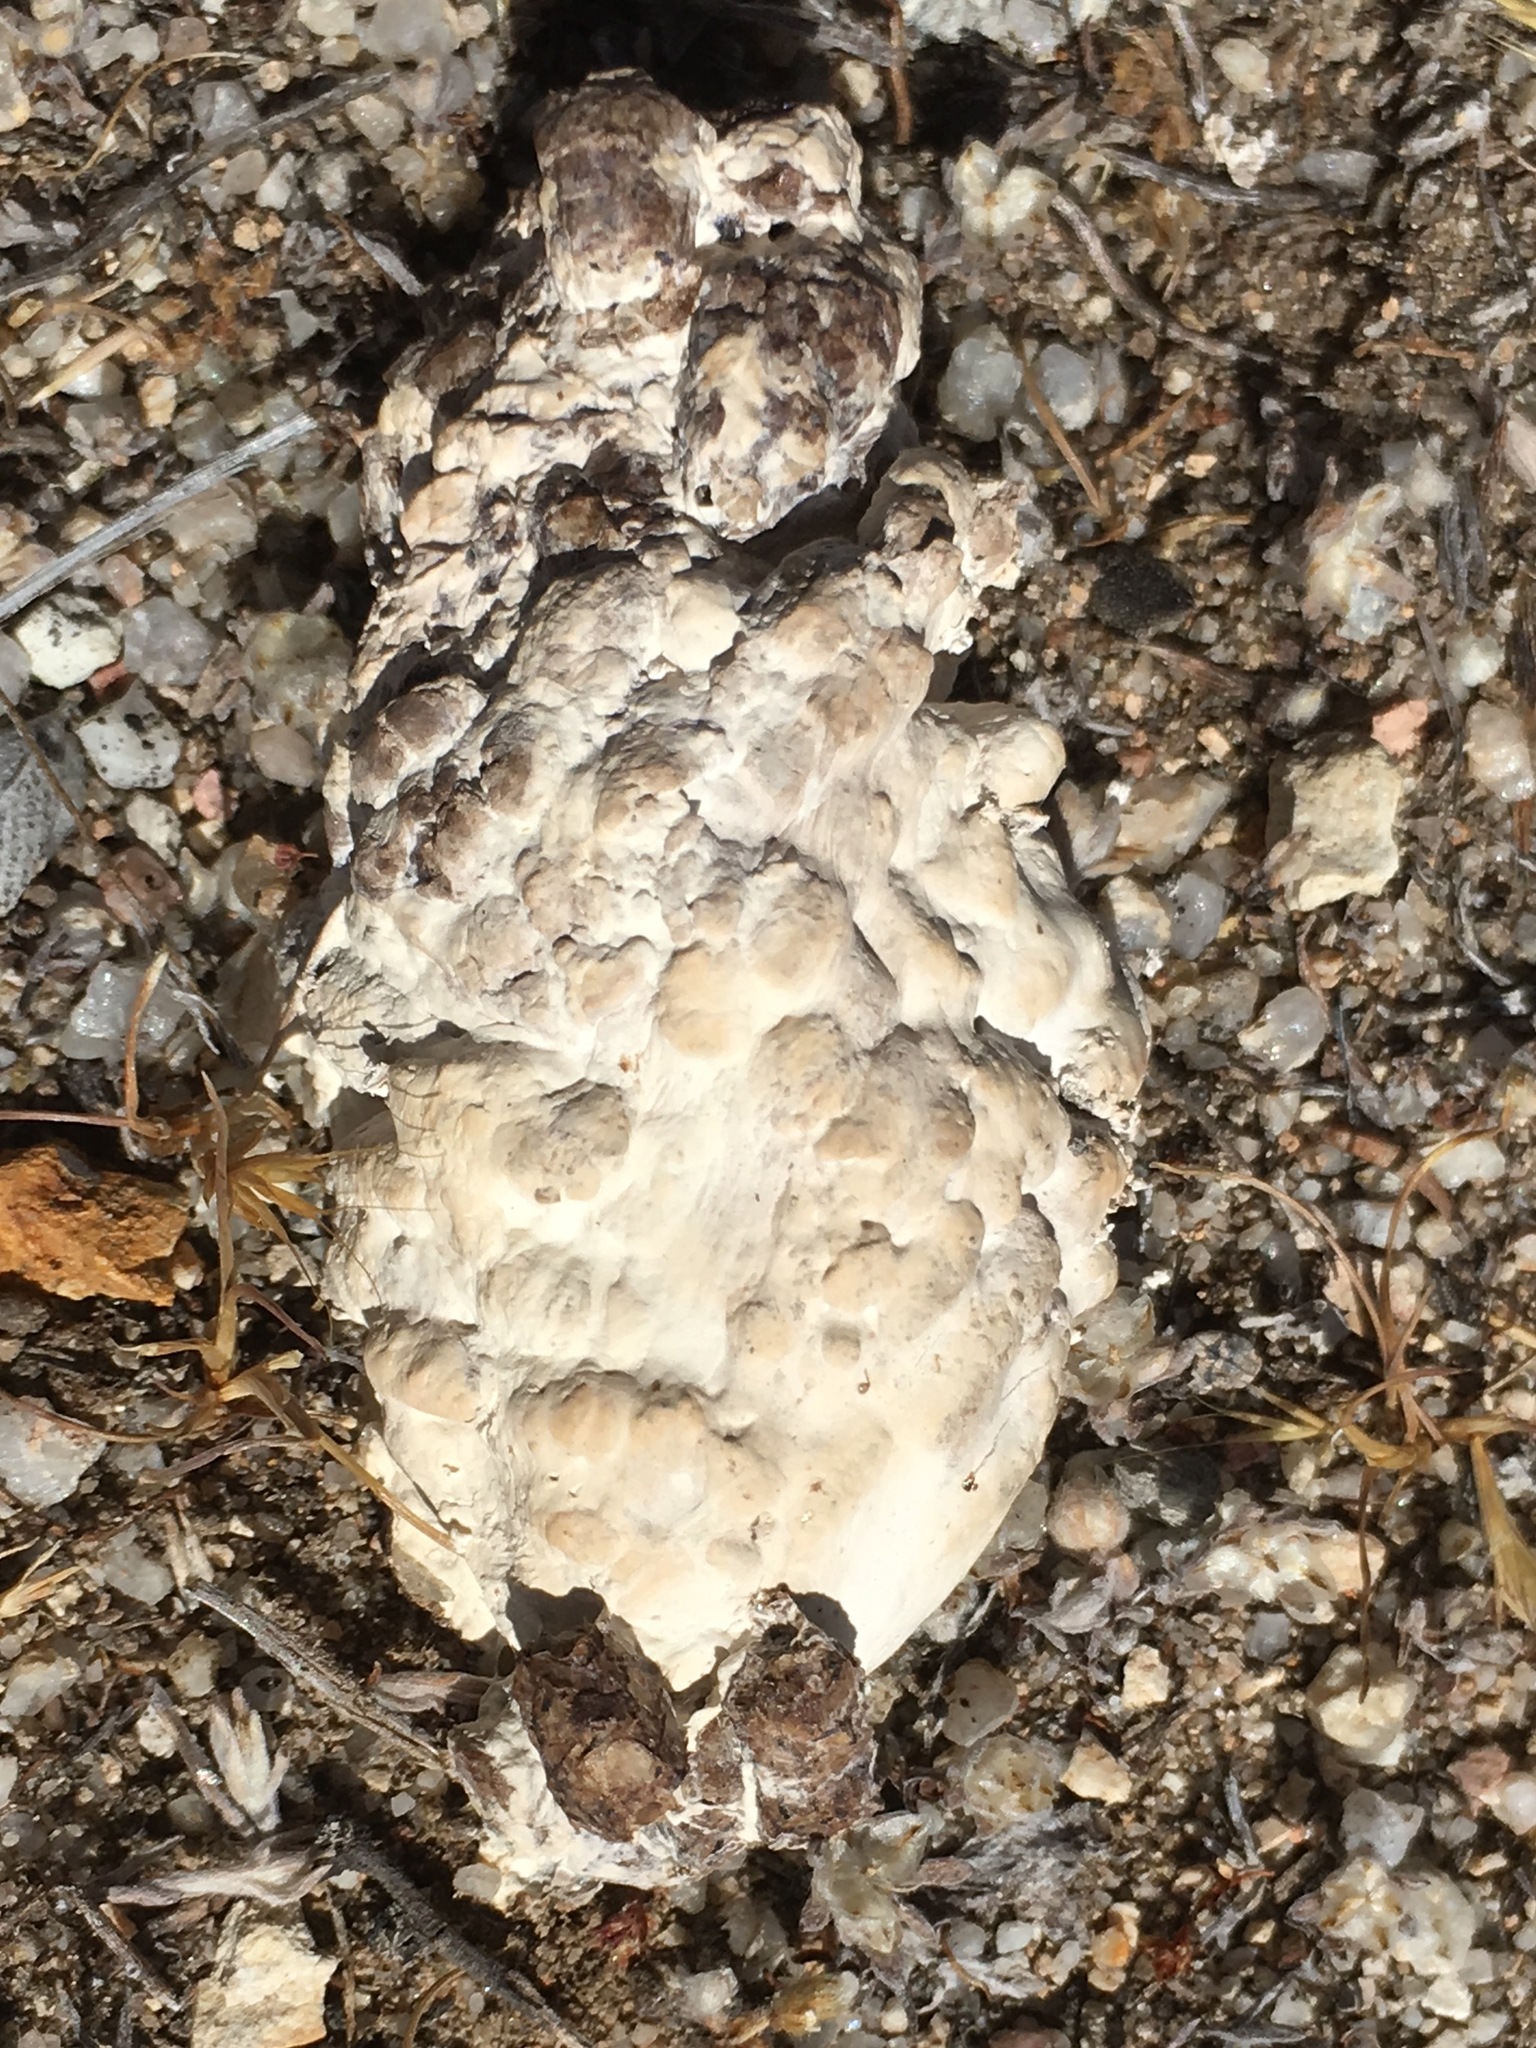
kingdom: Animalia
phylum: Chordata
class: Aves
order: Cuculiformes
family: Cuculidae
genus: Geococcyx
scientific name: Geococcyx californianus
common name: Greater roadrunner
